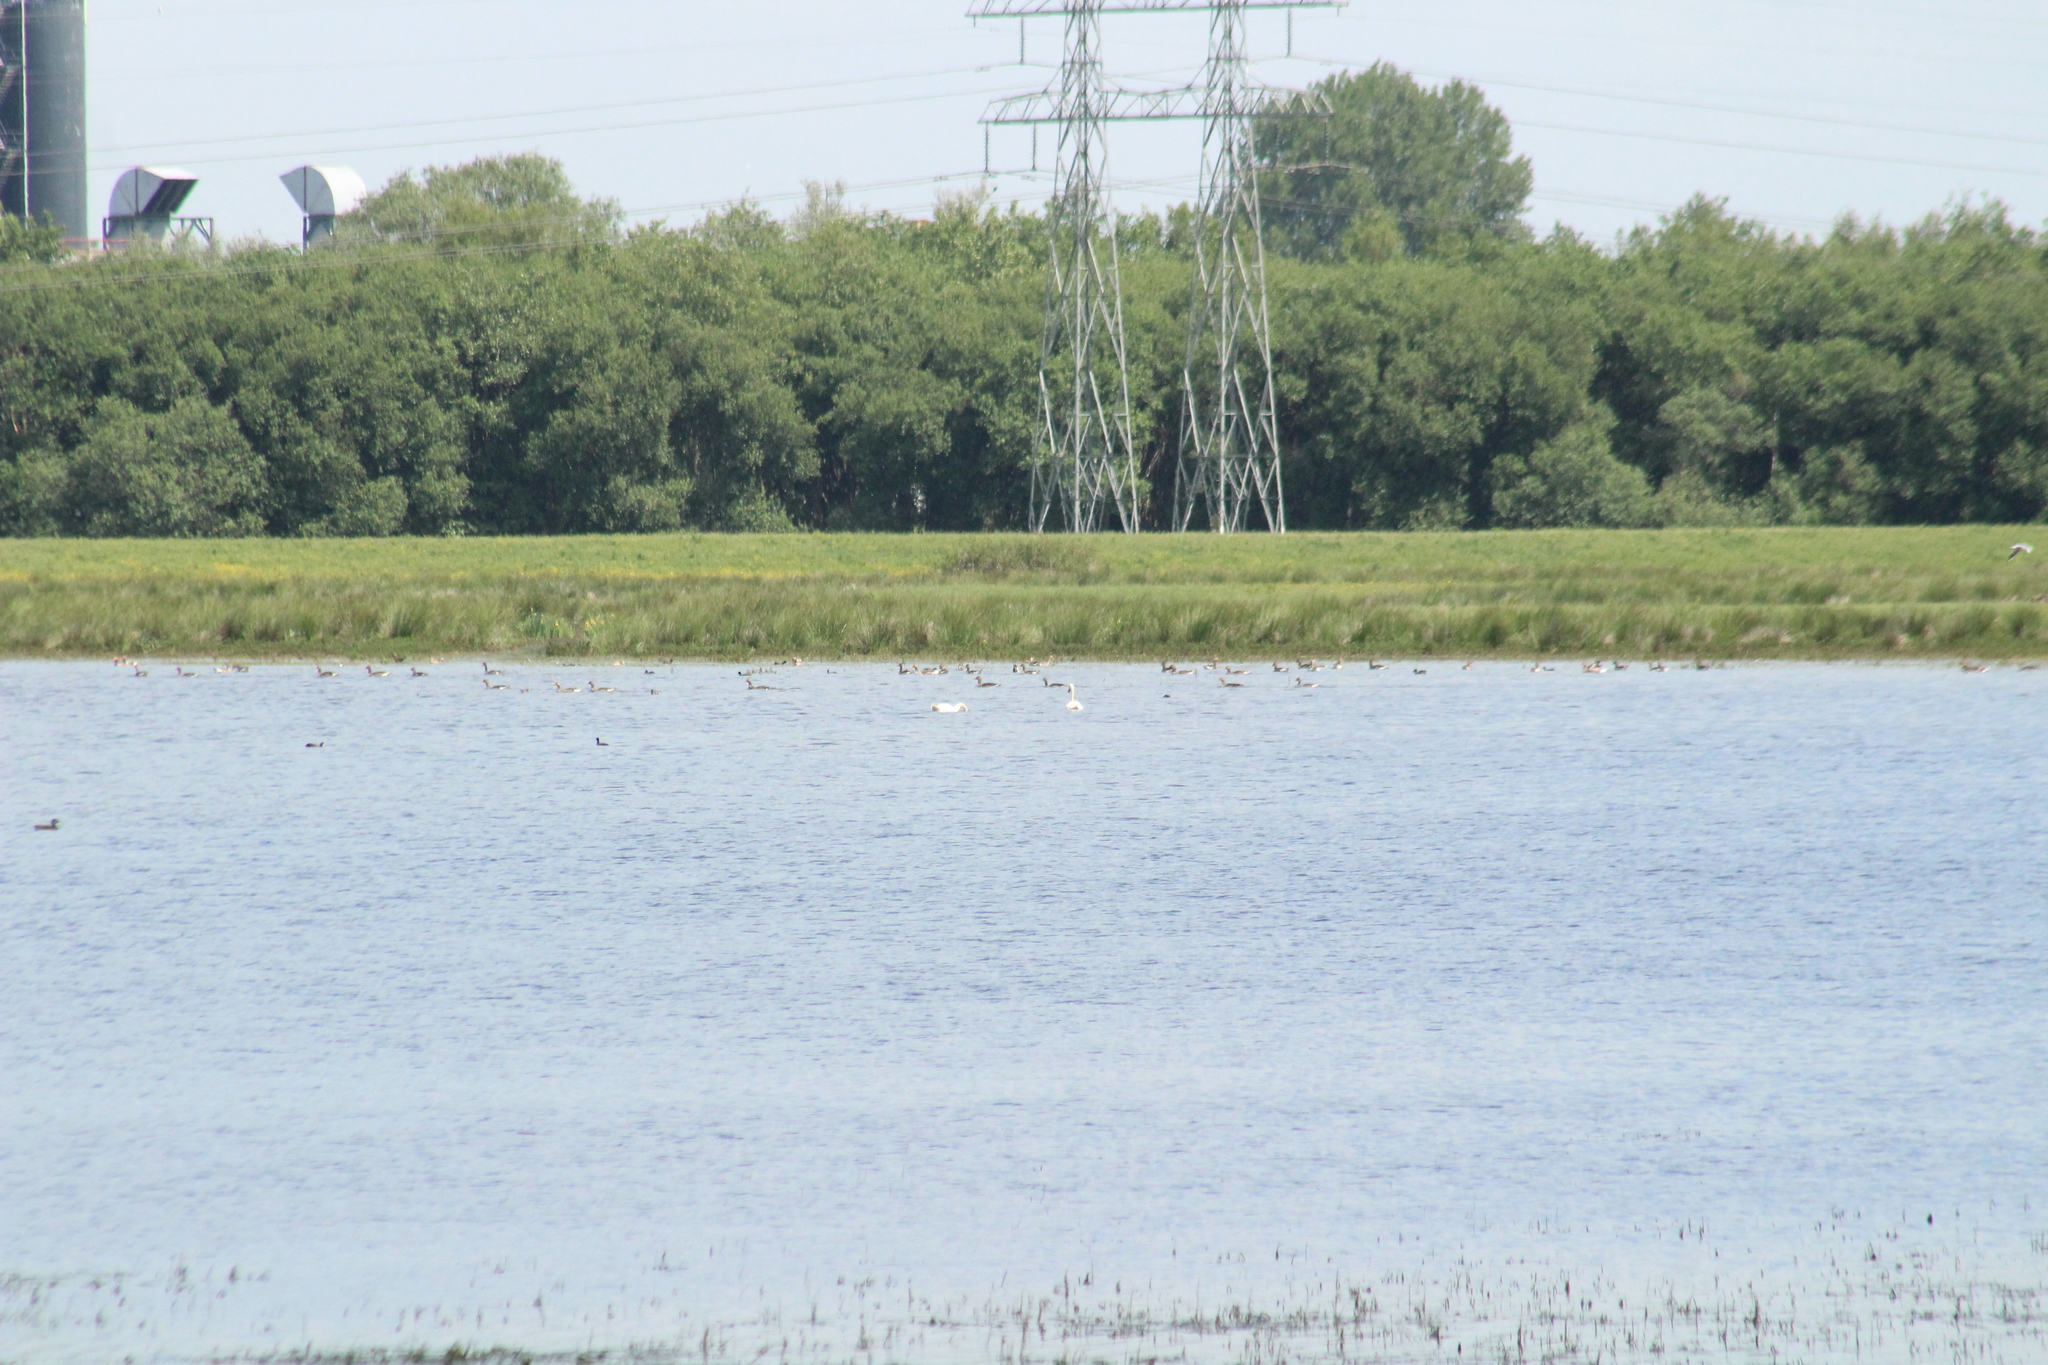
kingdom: Animalia
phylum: Chordata
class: Aves
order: Anseriformes
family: Anatidae
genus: Cygnus
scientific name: Cygnus olor
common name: Mute swan
